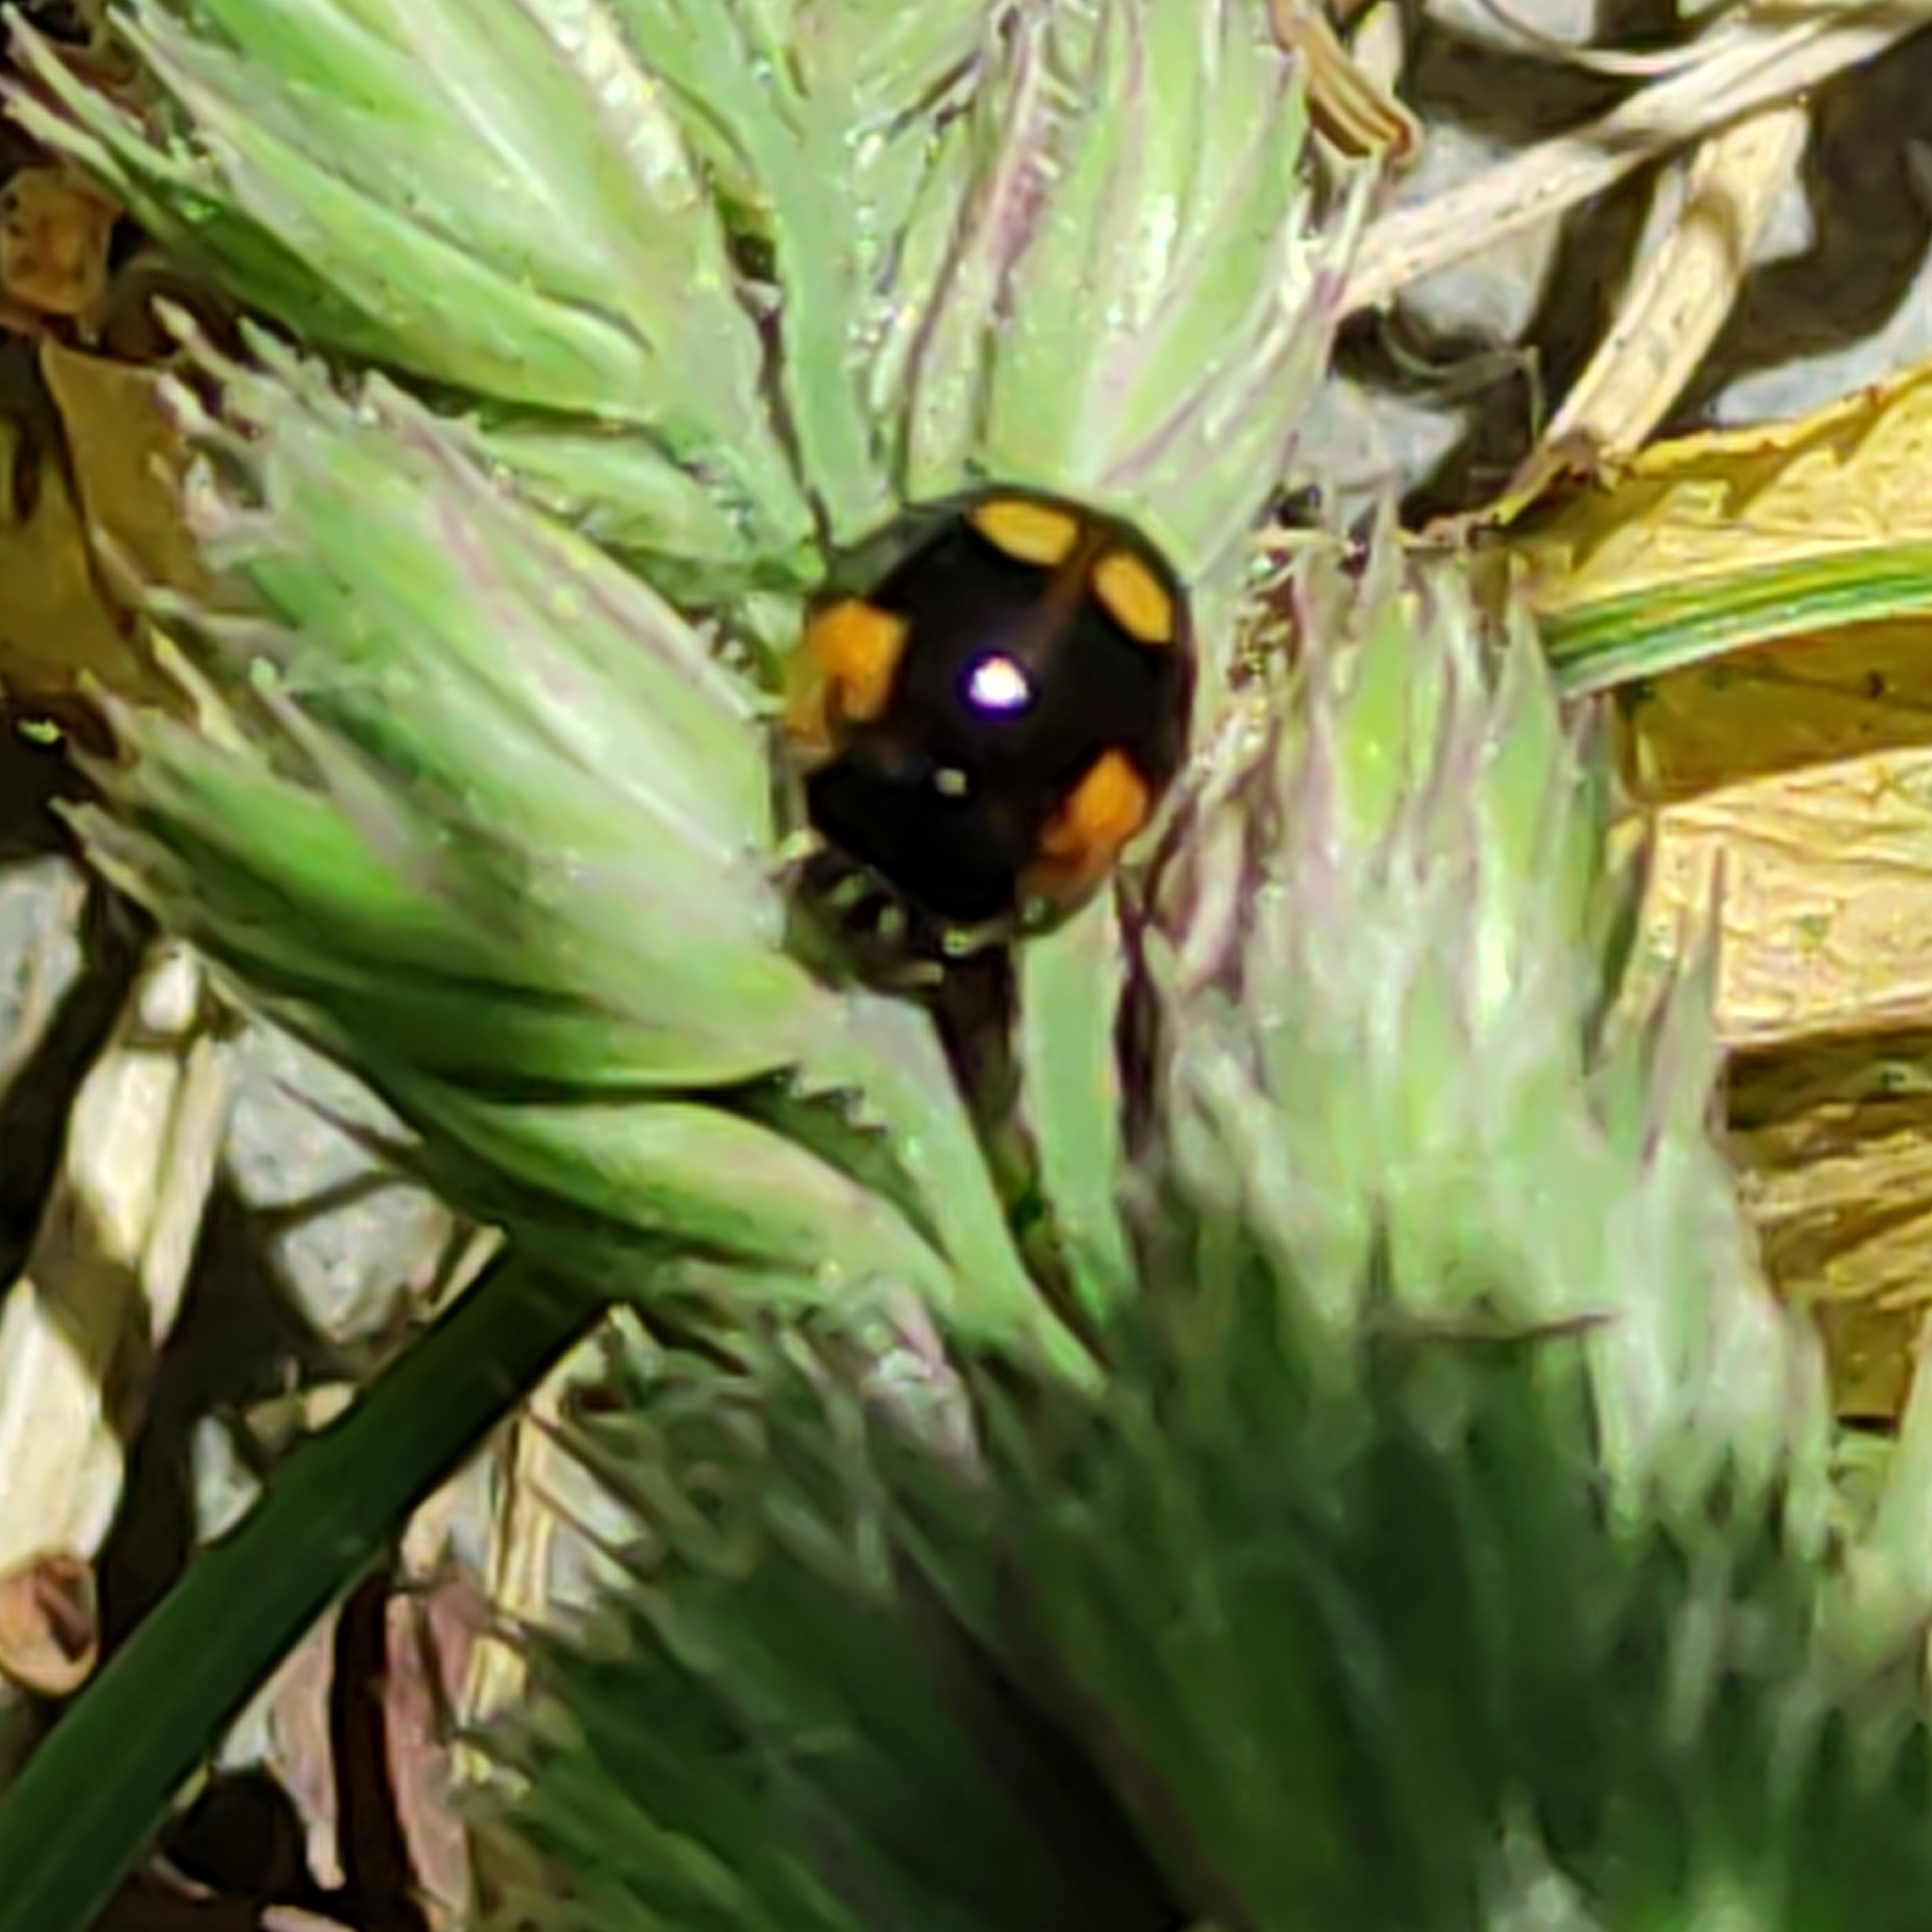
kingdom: Animalia
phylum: Arthropoda
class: Insecta
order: Coleoptera
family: Coccinellidae
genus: Adalia
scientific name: Adalia bipunctata
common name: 2-spot ladybird
